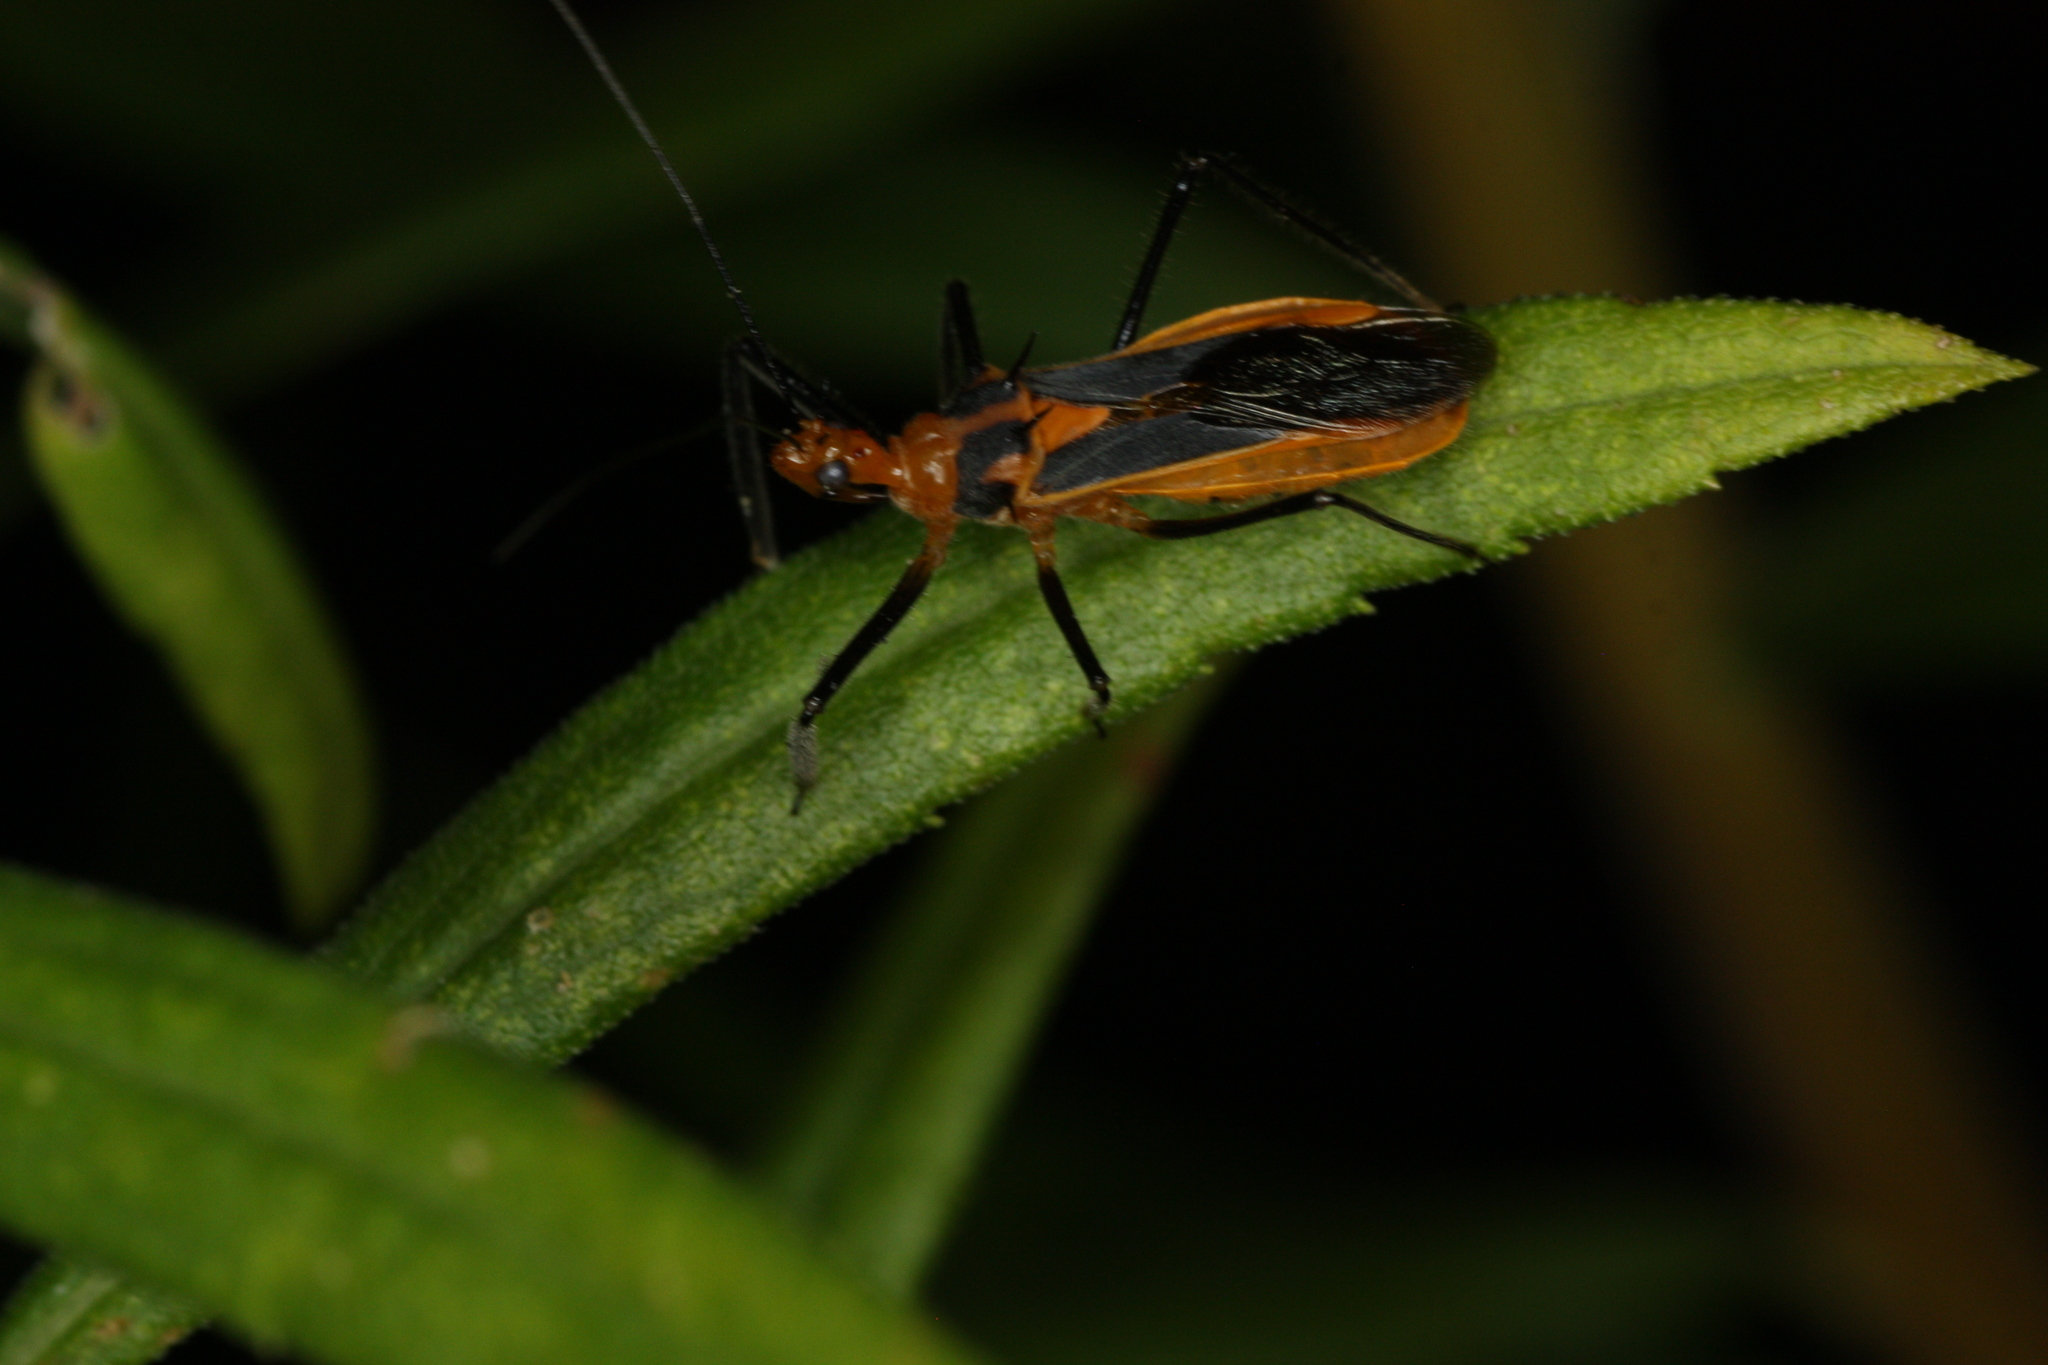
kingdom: Animalia
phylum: Arthropoda
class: Insecta
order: Hemiptera
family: Reduviidae
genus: Repipta
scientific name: Repipta taurus
